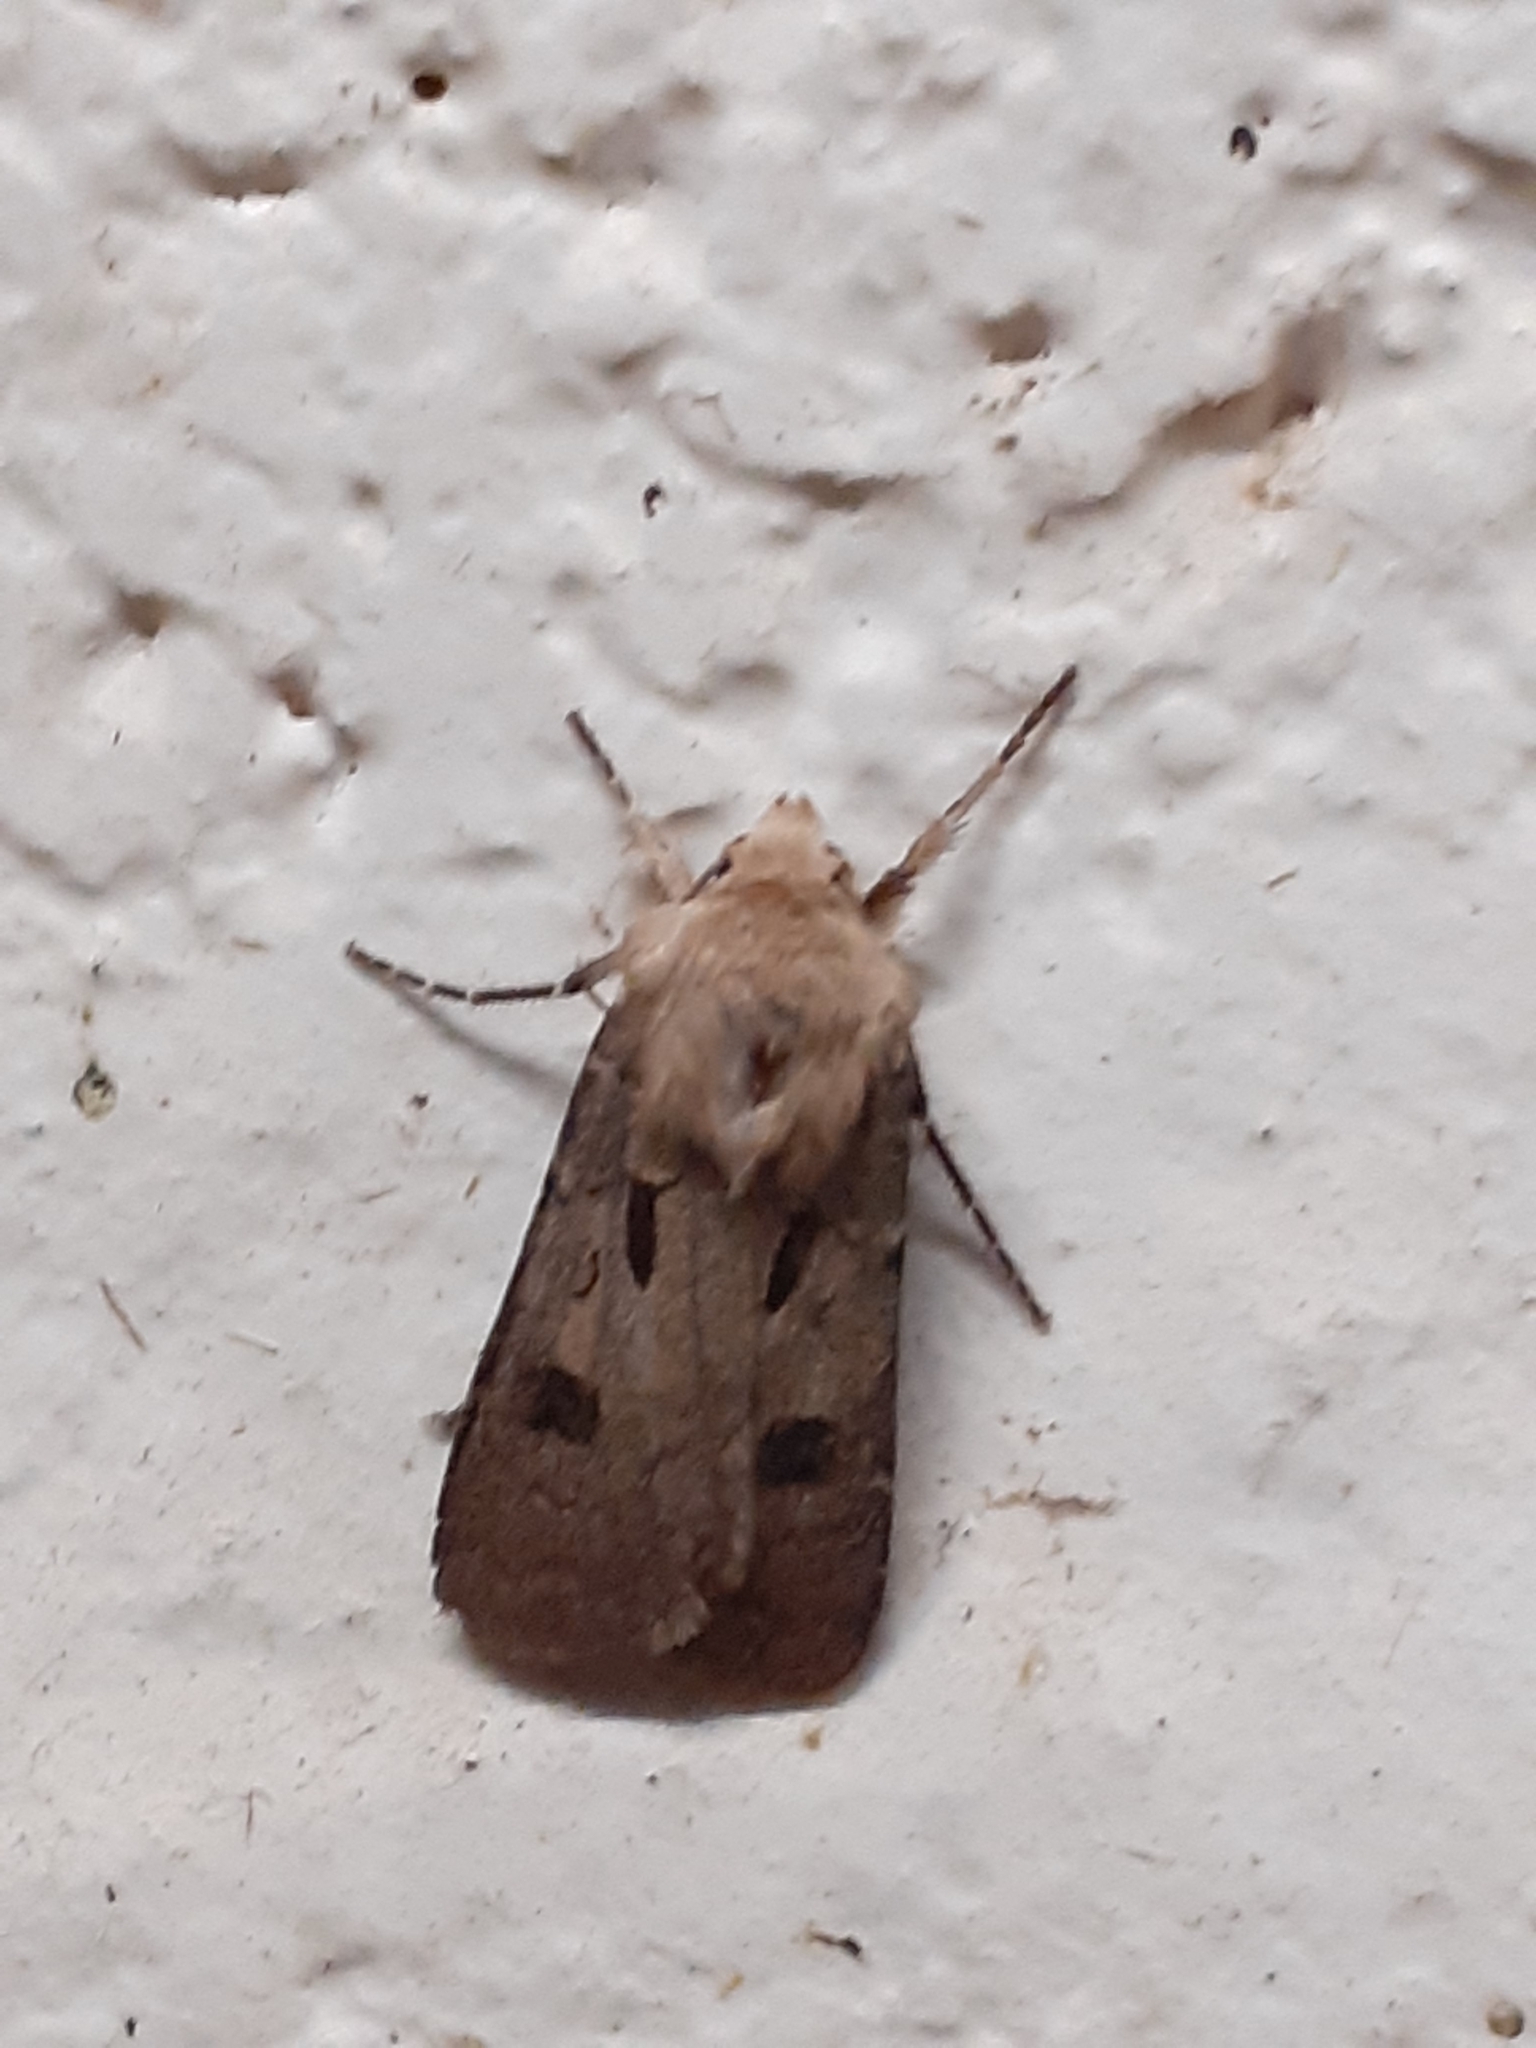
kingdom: Animalia
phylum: Arthropoda
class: Insecta
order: Lepidoptera
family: Noctuidae
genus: Agrotis
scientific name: Agrotis exclamationis
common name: Heart and dart
